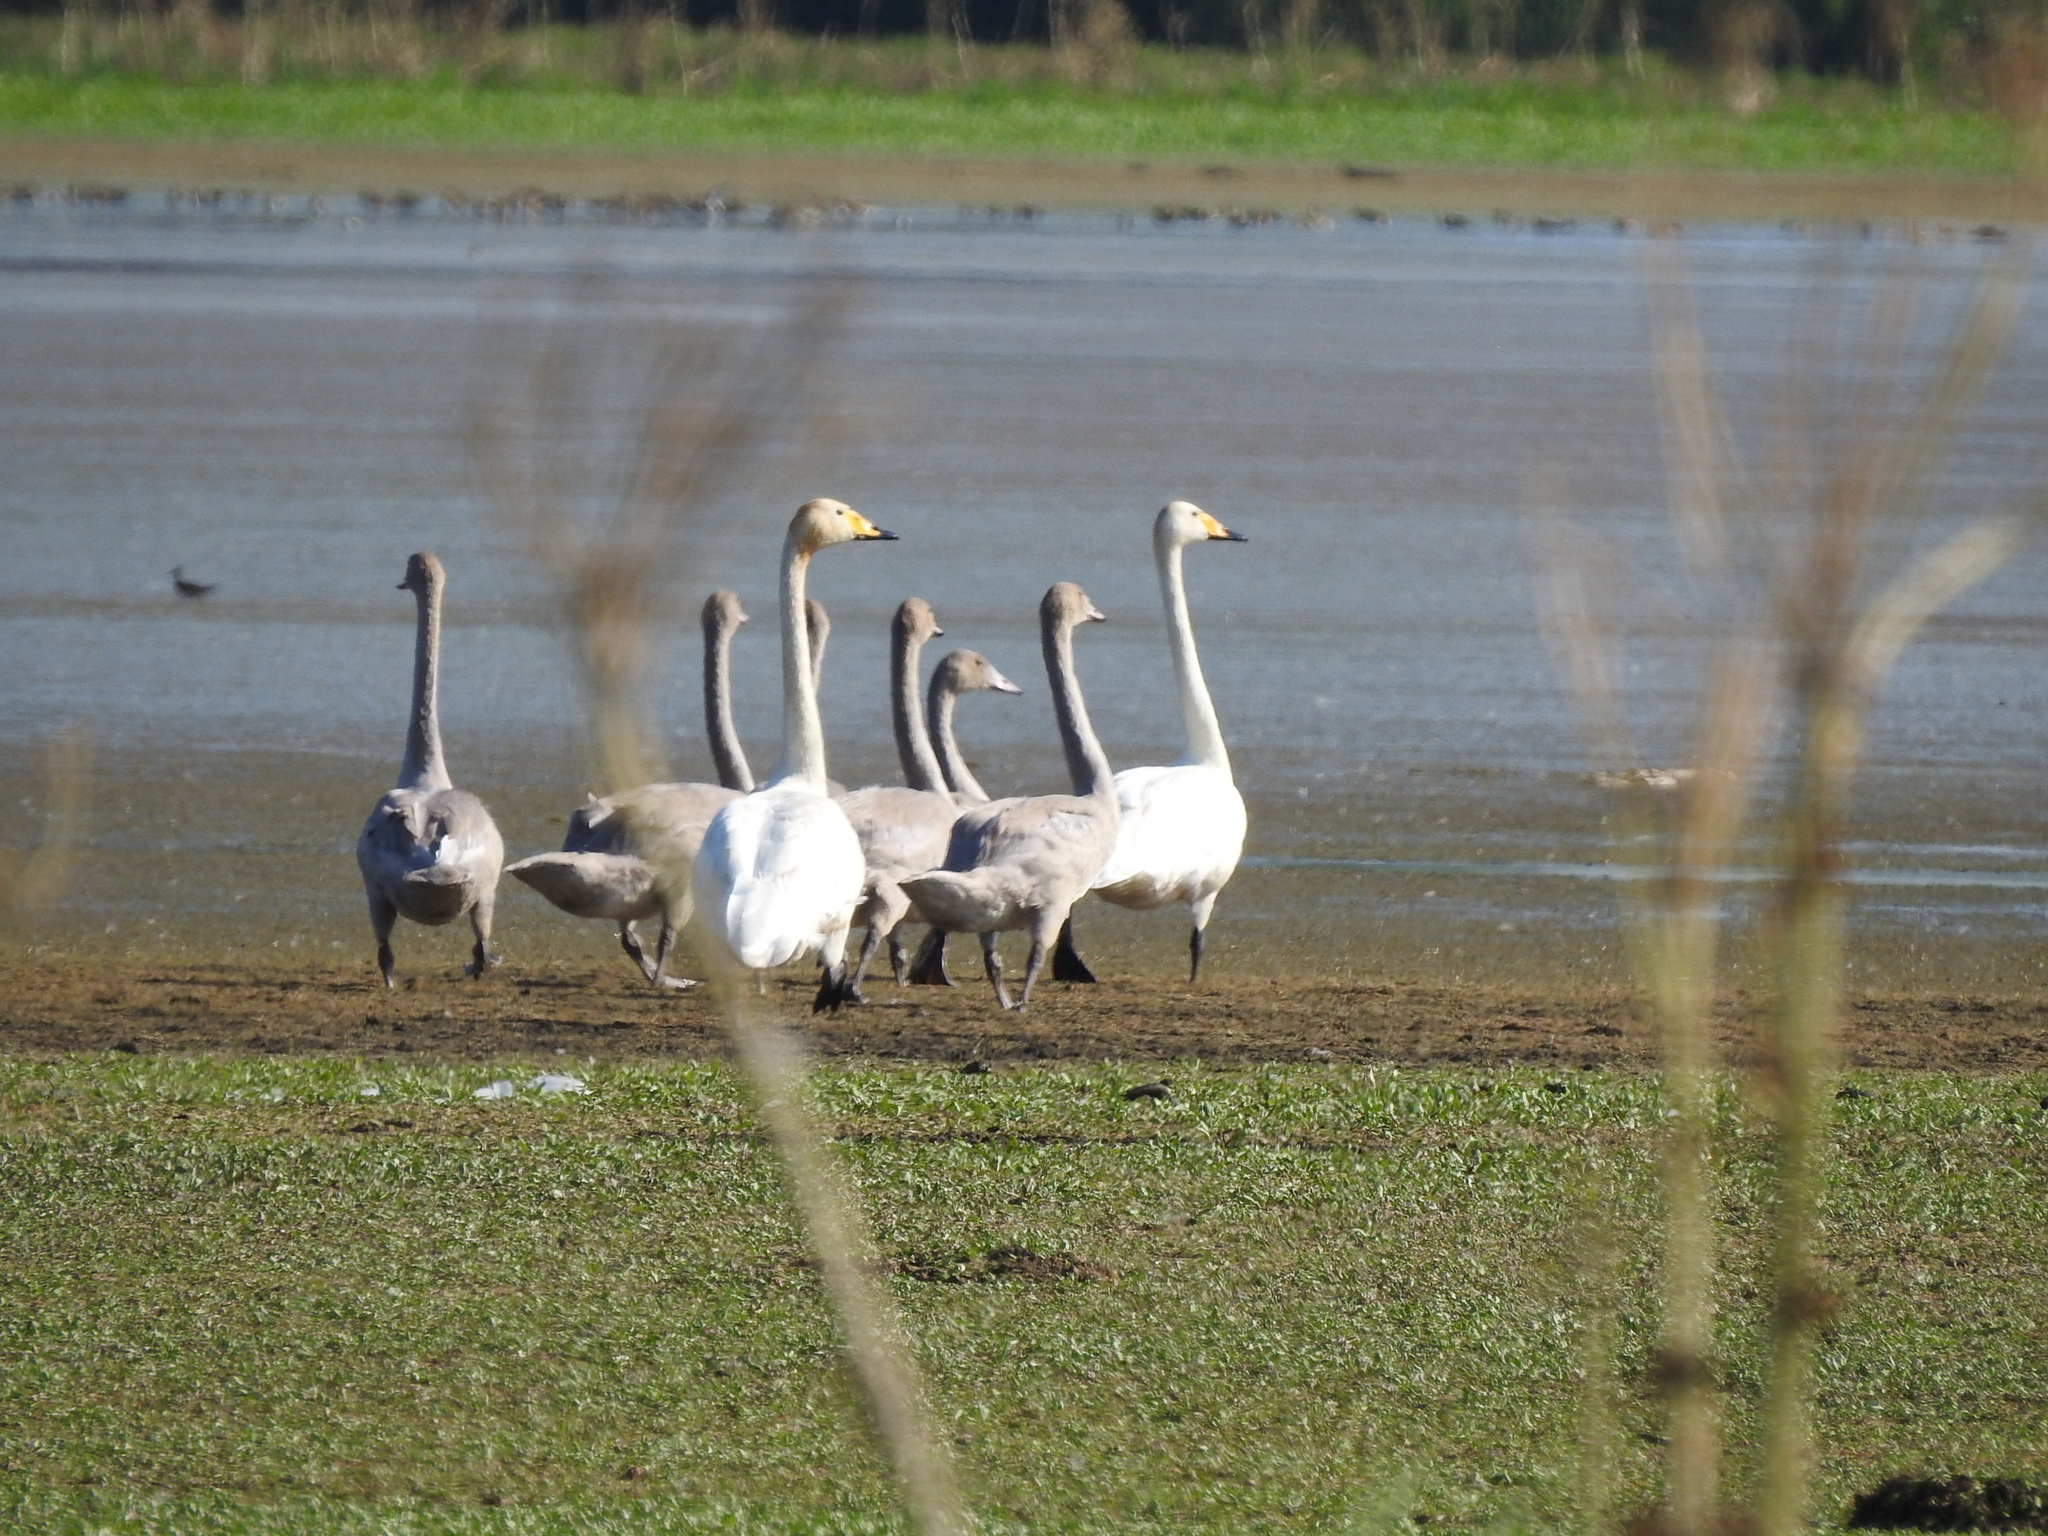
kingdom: Animalia
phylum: Chordata
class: Aves
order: Anseriformes
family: Anatidae
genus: Cygnus
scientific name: Cygnus cygnus
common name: Whooper swan
